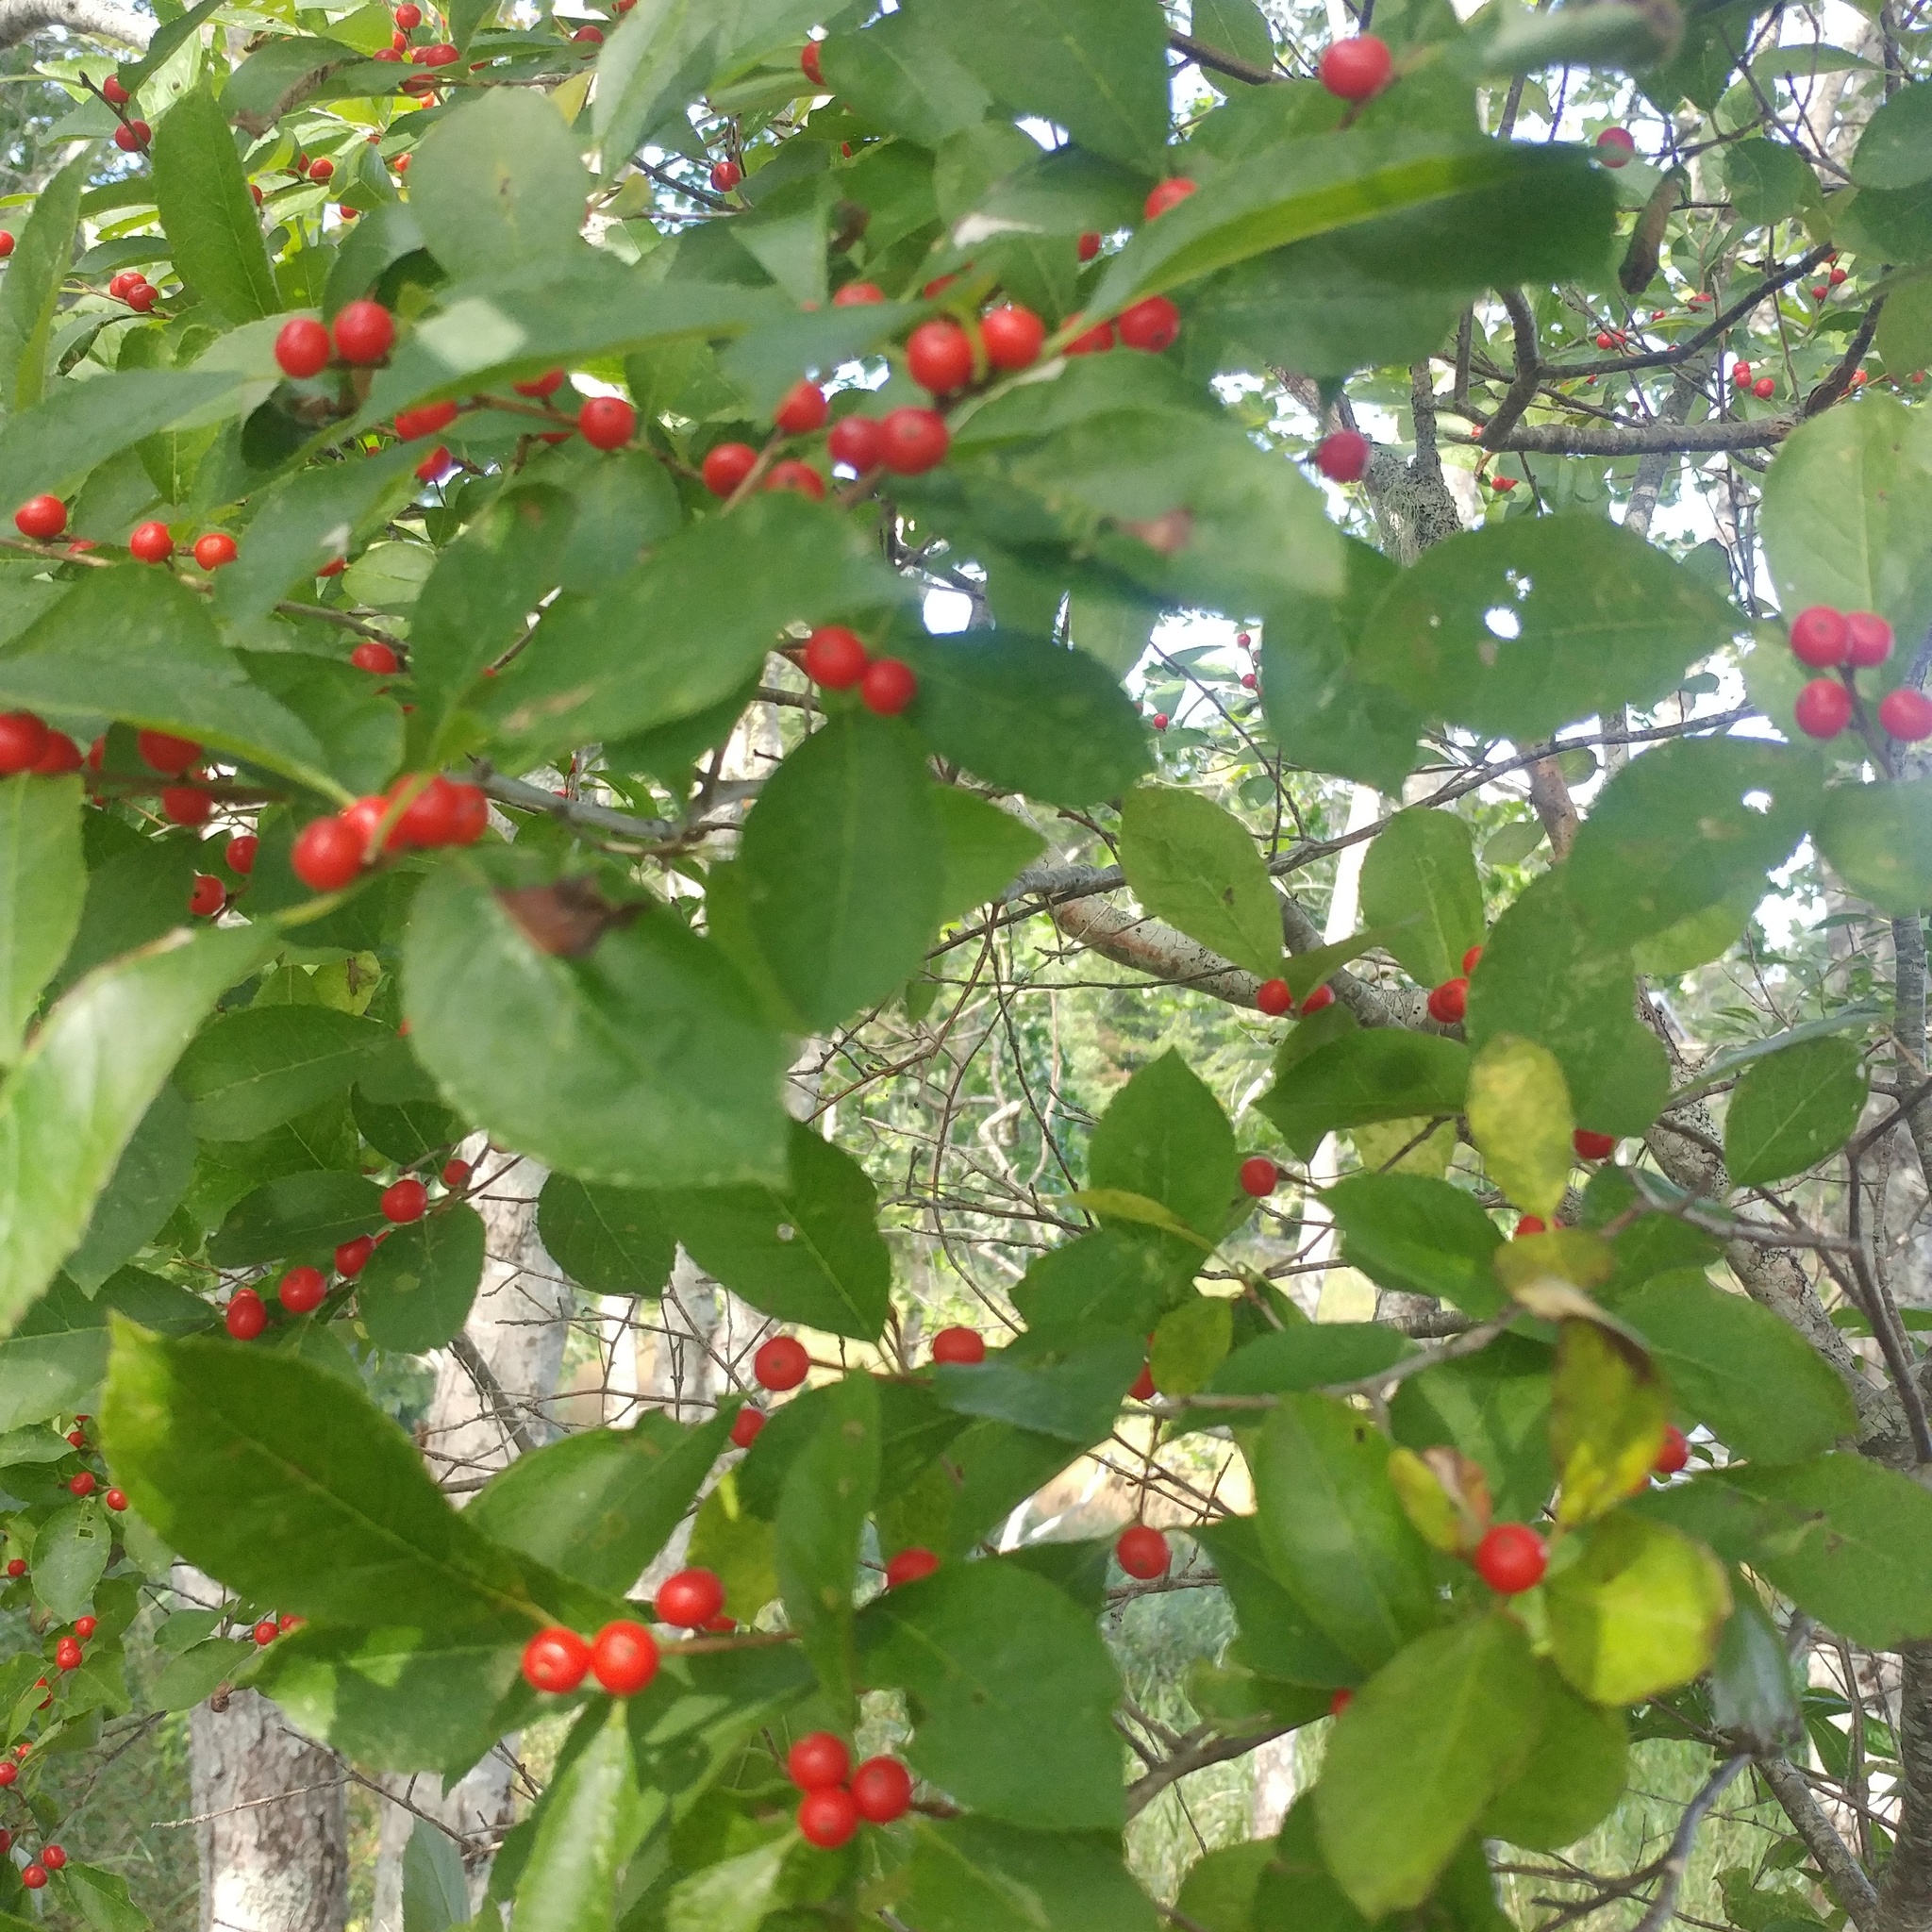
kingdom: Plantae
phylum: Tracheophyta
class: Magnoliopsida
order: Aquifoliales
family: Aquifoliaceae
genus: Ilex
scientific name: Ilex verticillata
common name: Virginia winterberry
